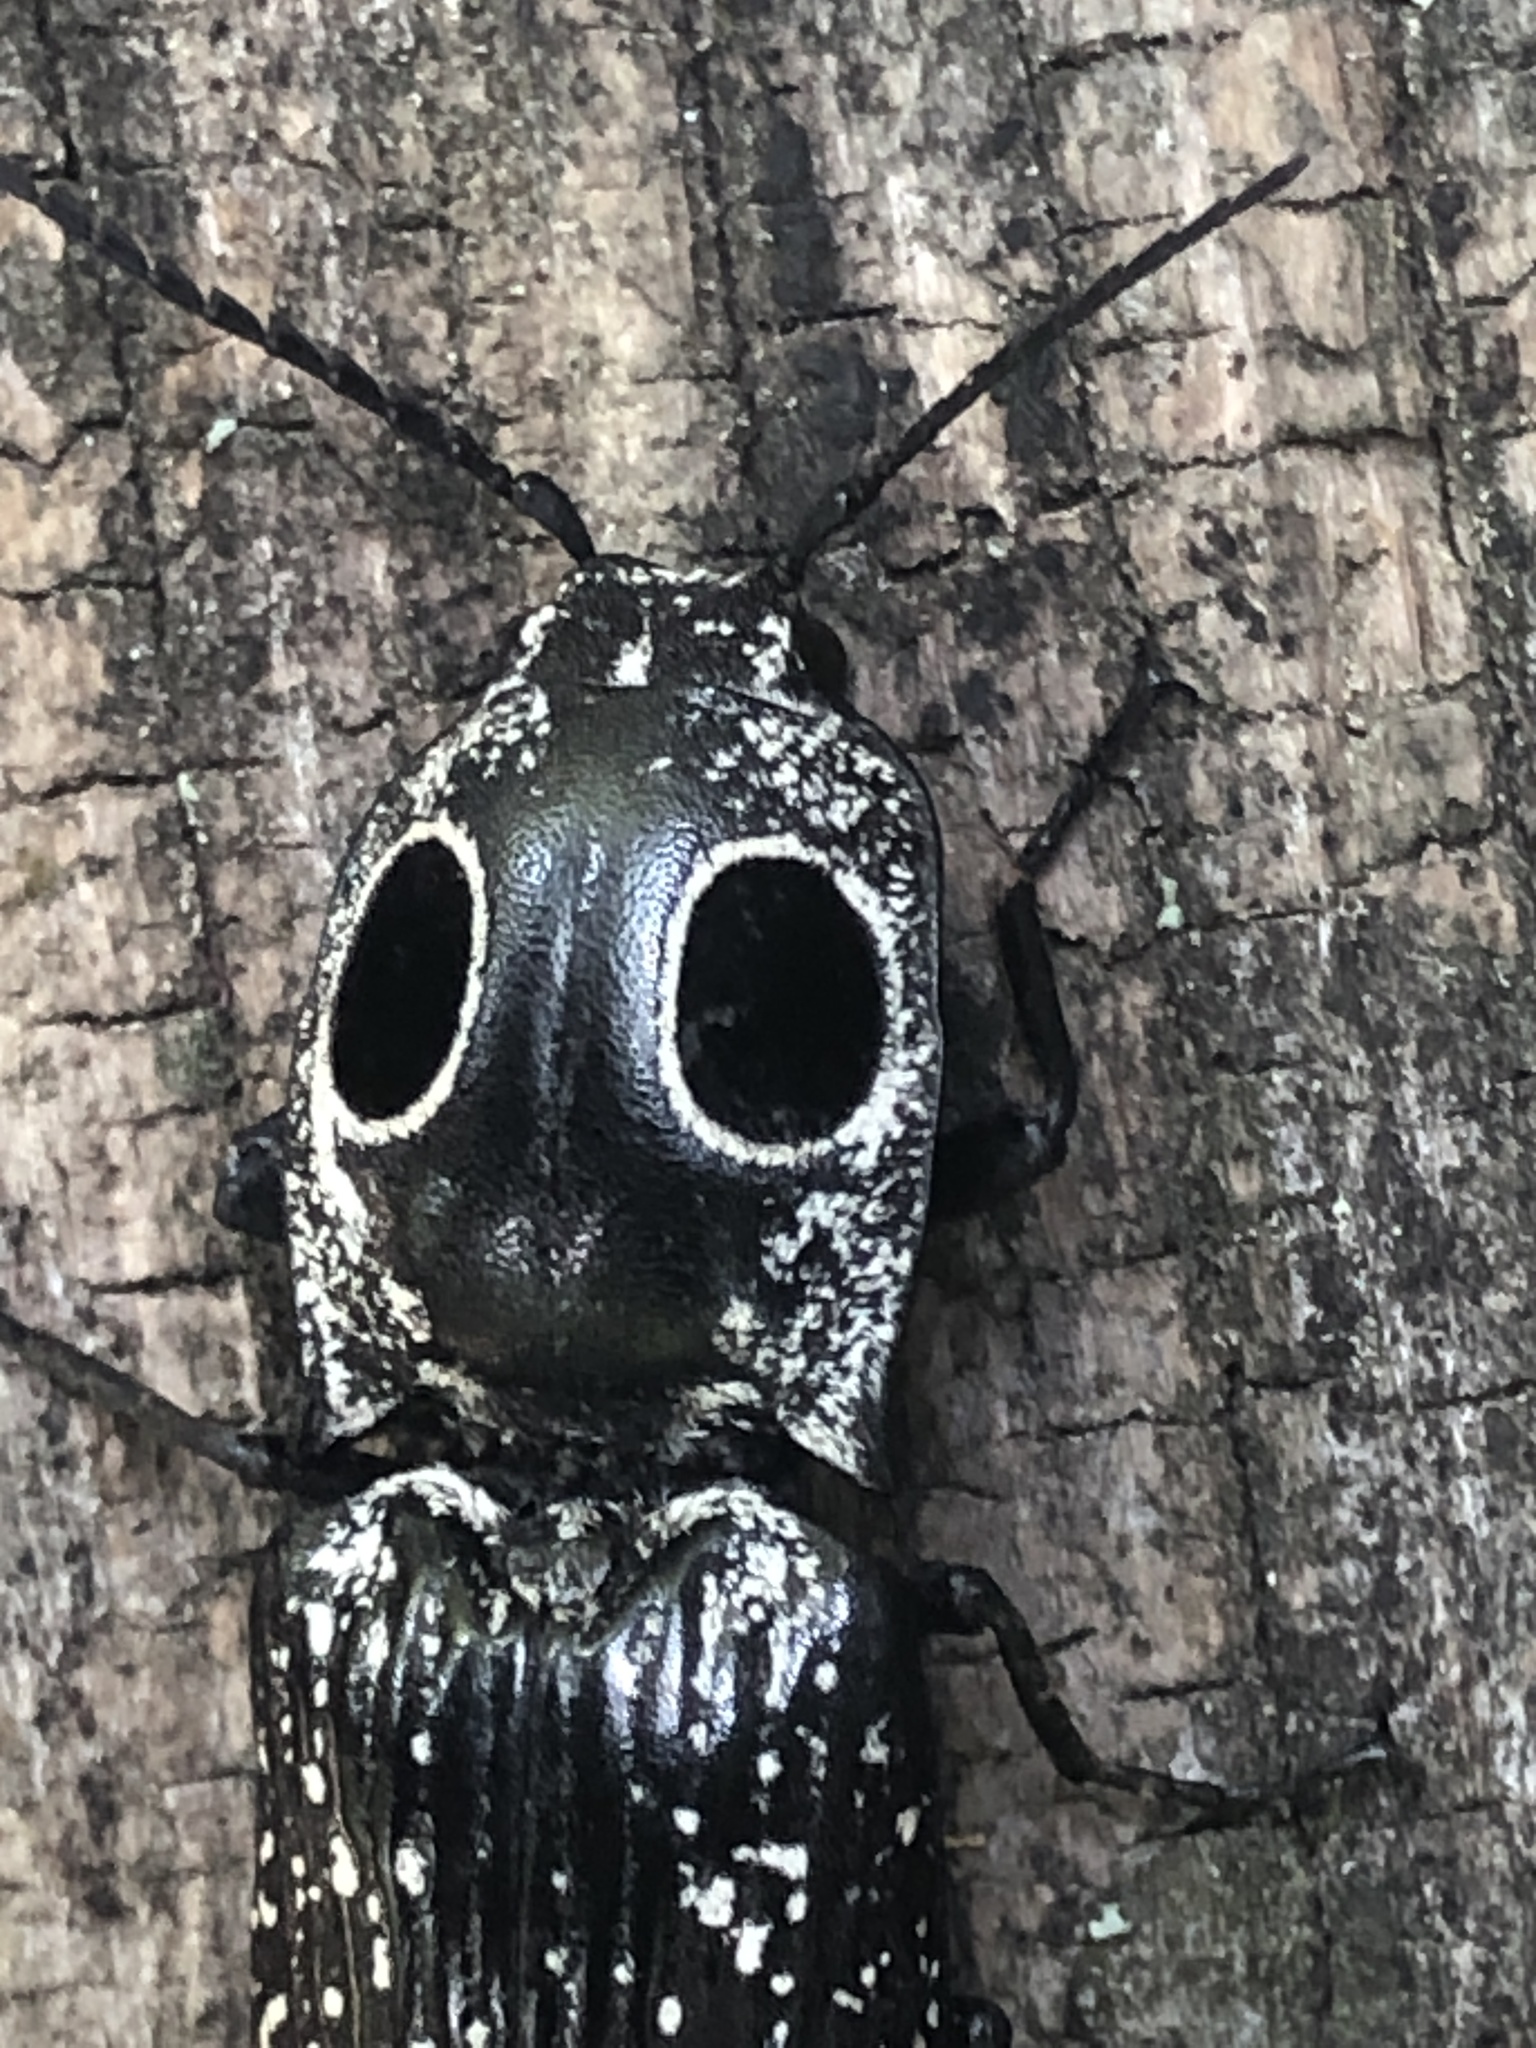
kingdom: Animalia
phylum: Arthropoda
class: Insecta
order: Coleoptera
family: Elateridae
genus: Alaus
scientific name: Alaus oculatus
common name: Eastern eyed click beetle
